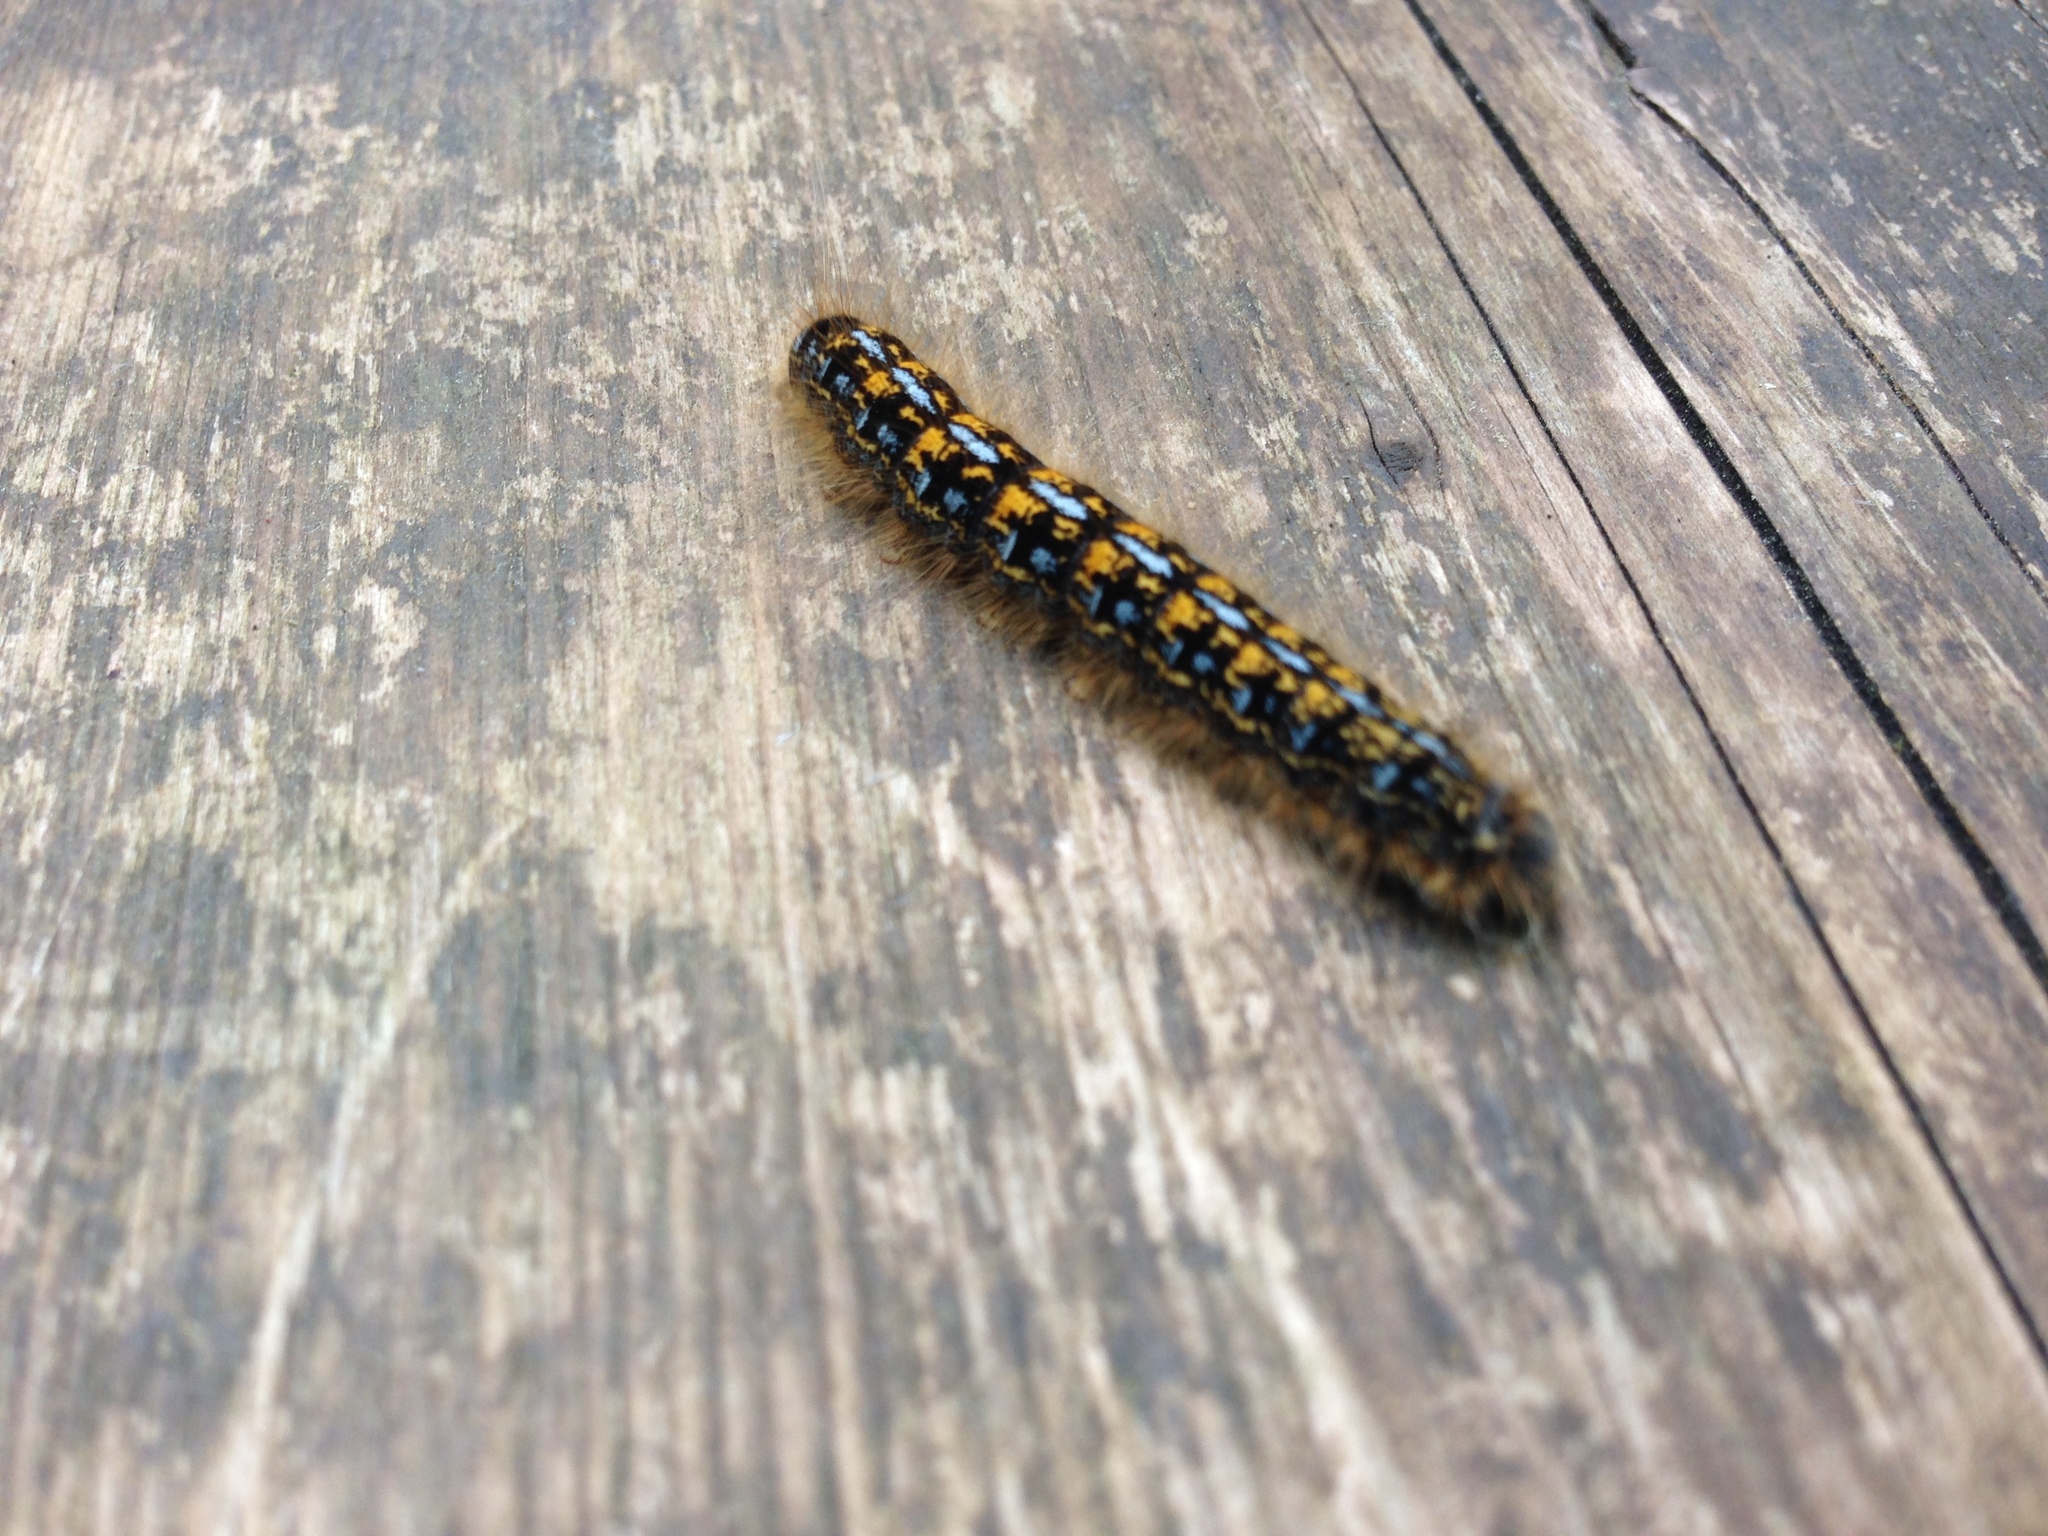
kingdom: Animalia
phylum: Arthropoda
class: Insecta
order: Lepidoptera
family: Lasiocampidae
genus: Malacosoma
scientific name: Malacosoma californica
